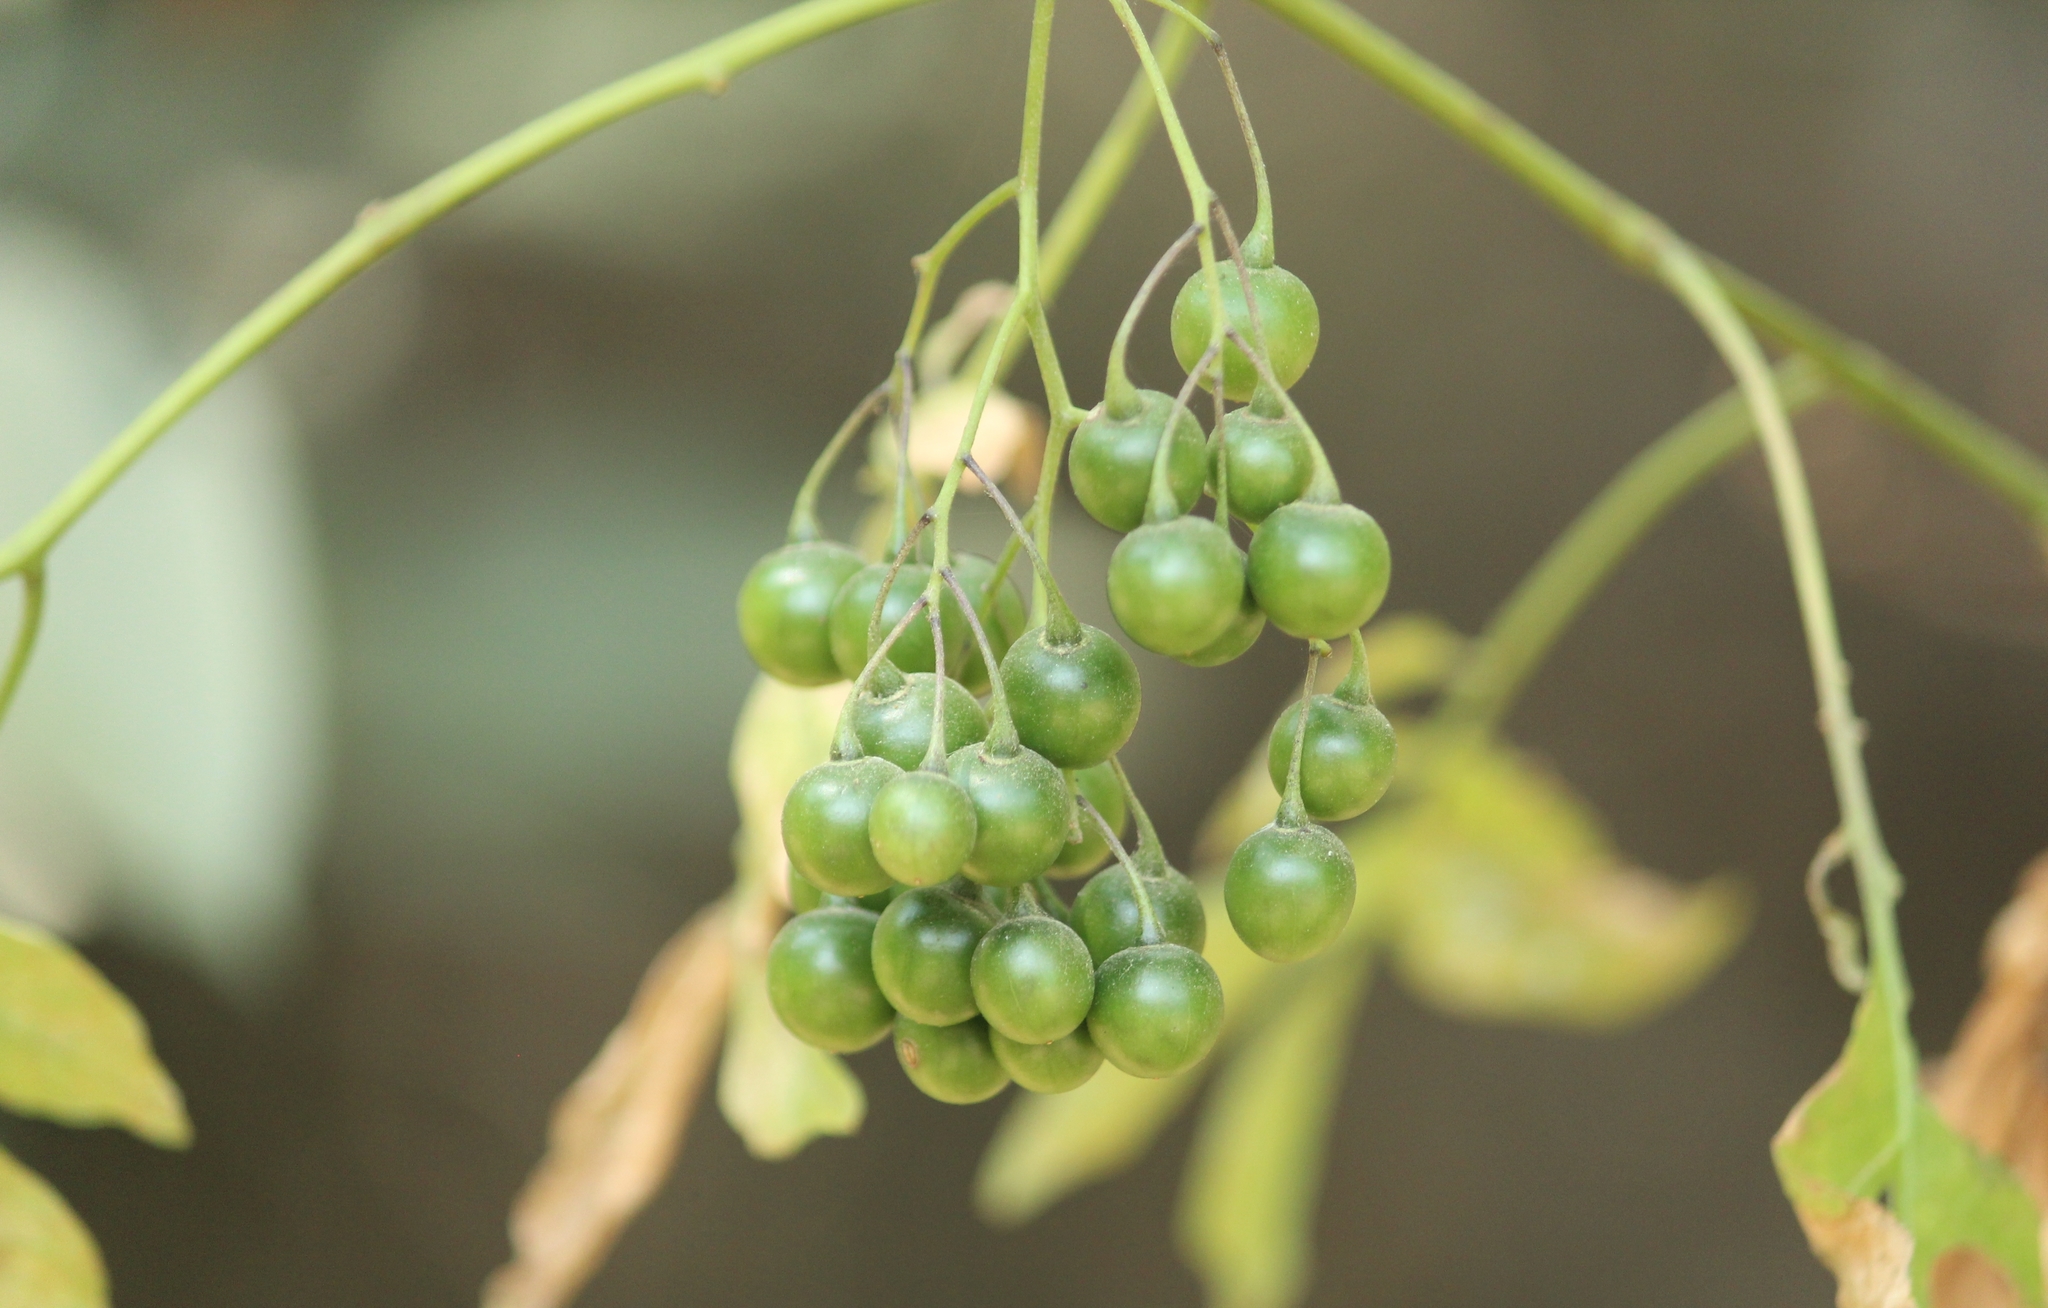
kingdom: Plantae
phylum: Tracheophyta
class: Magnoliopsida
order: Solanales
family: Solanaceae
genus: Solanum
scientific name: Solanum seaforthianum
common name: Brazilian nightshade
